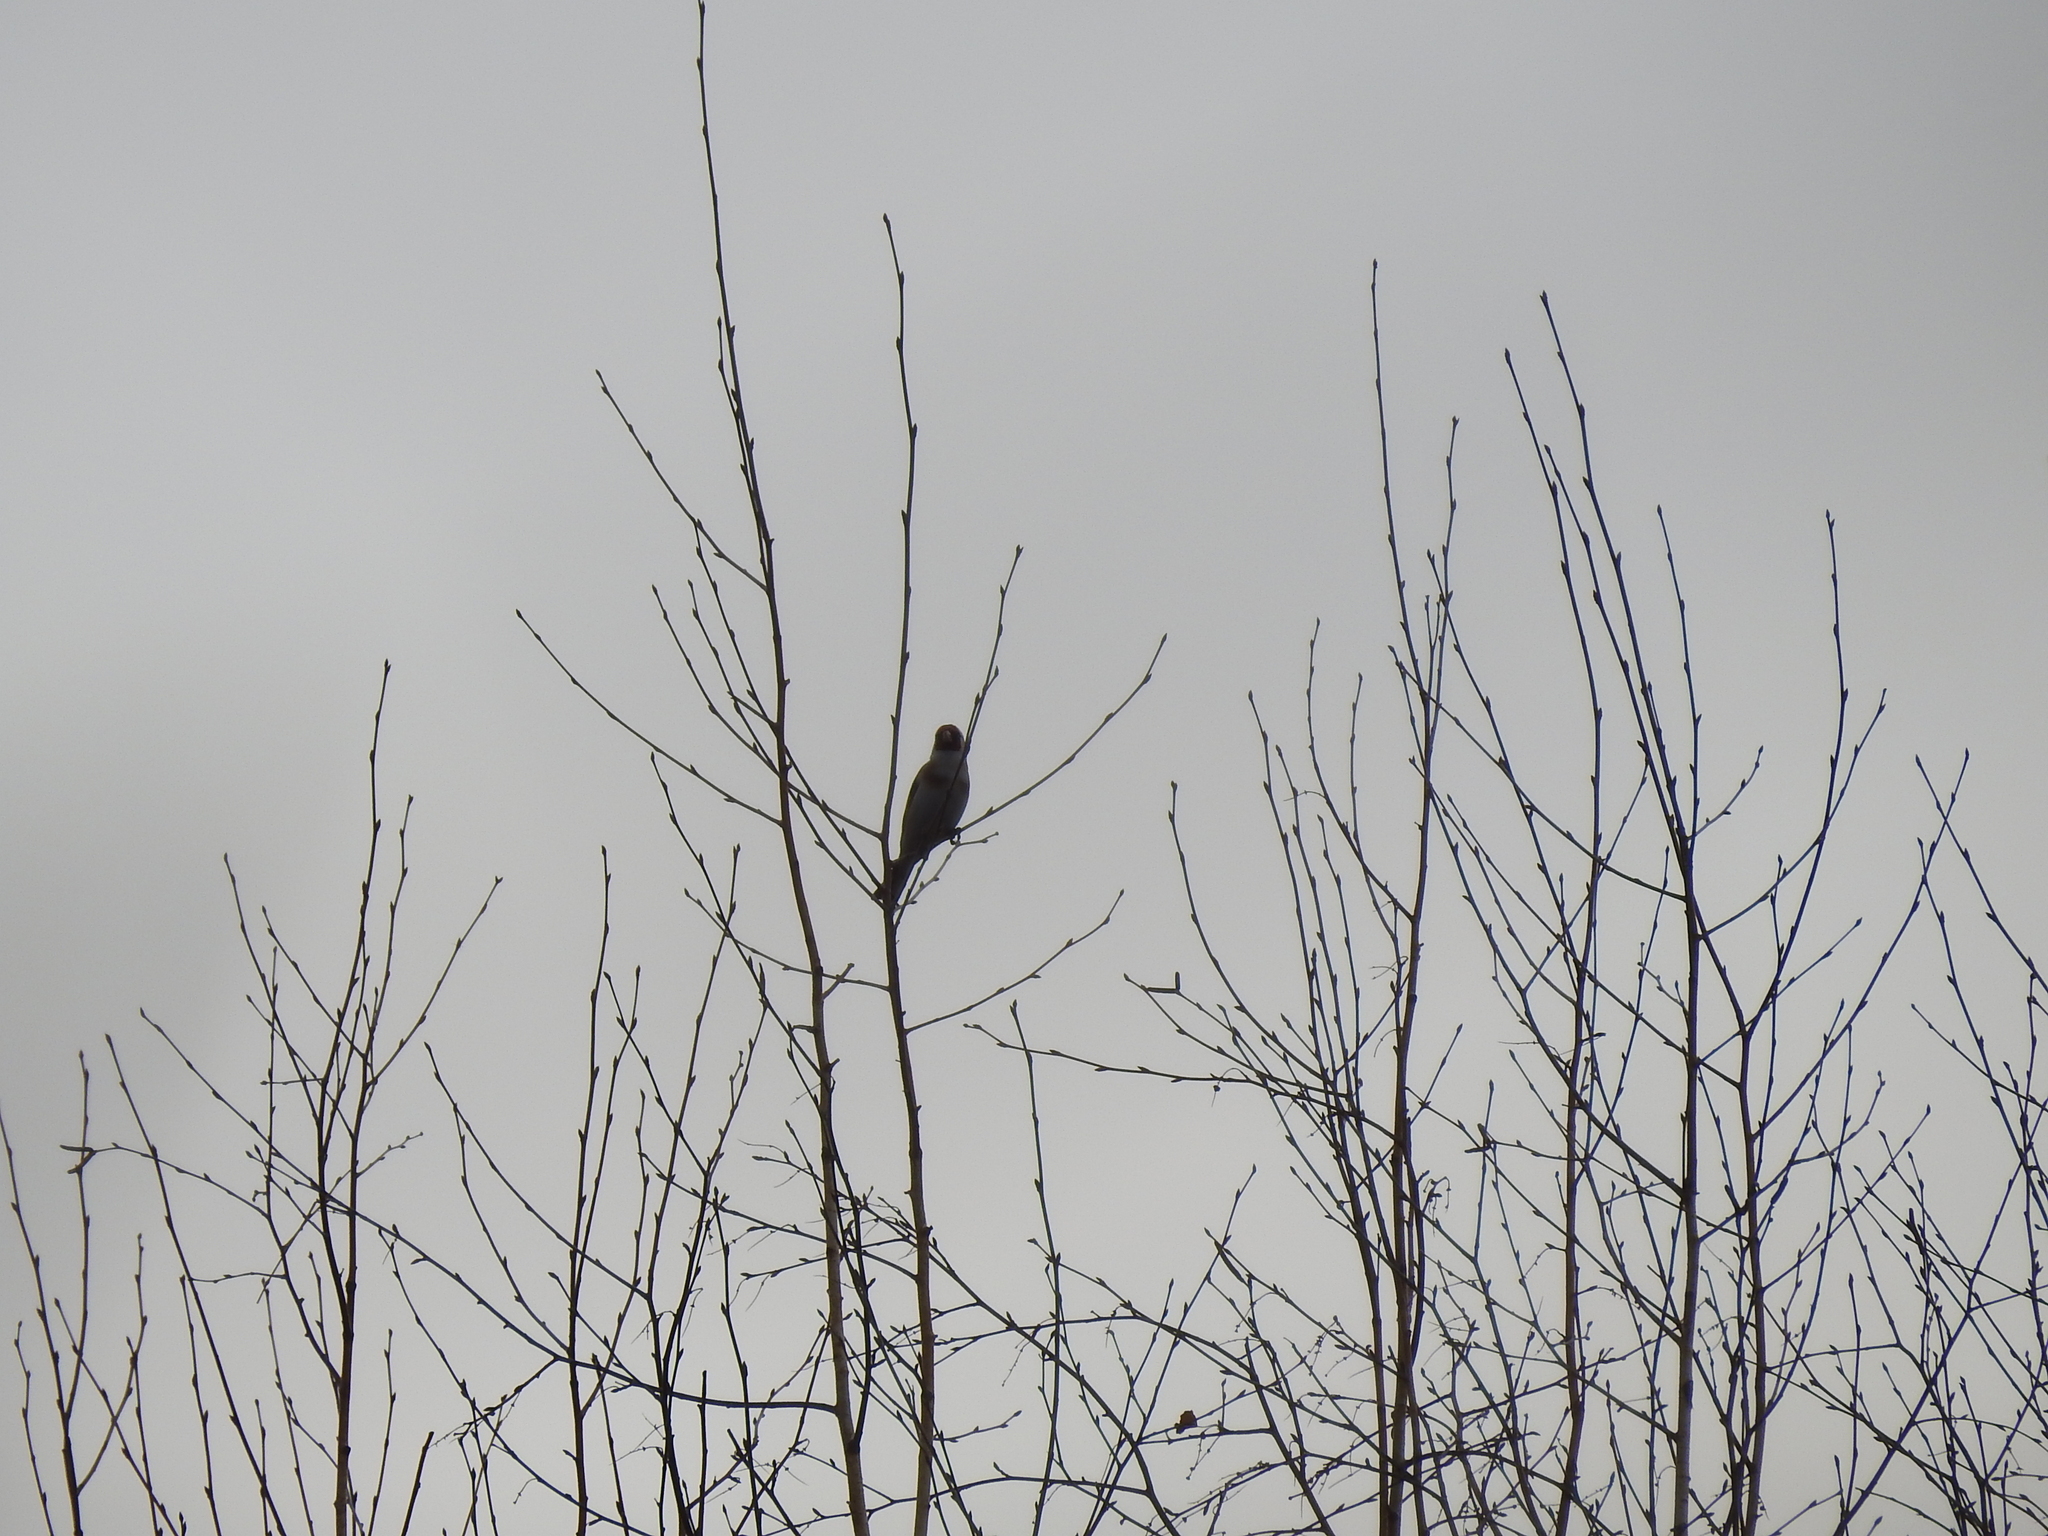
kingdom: Animalia
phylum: Chordata
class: Aves
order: Passeriformes
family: Fringillidae
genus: Carduelis
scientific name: Carduelis carduelis
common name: European goldfinch
